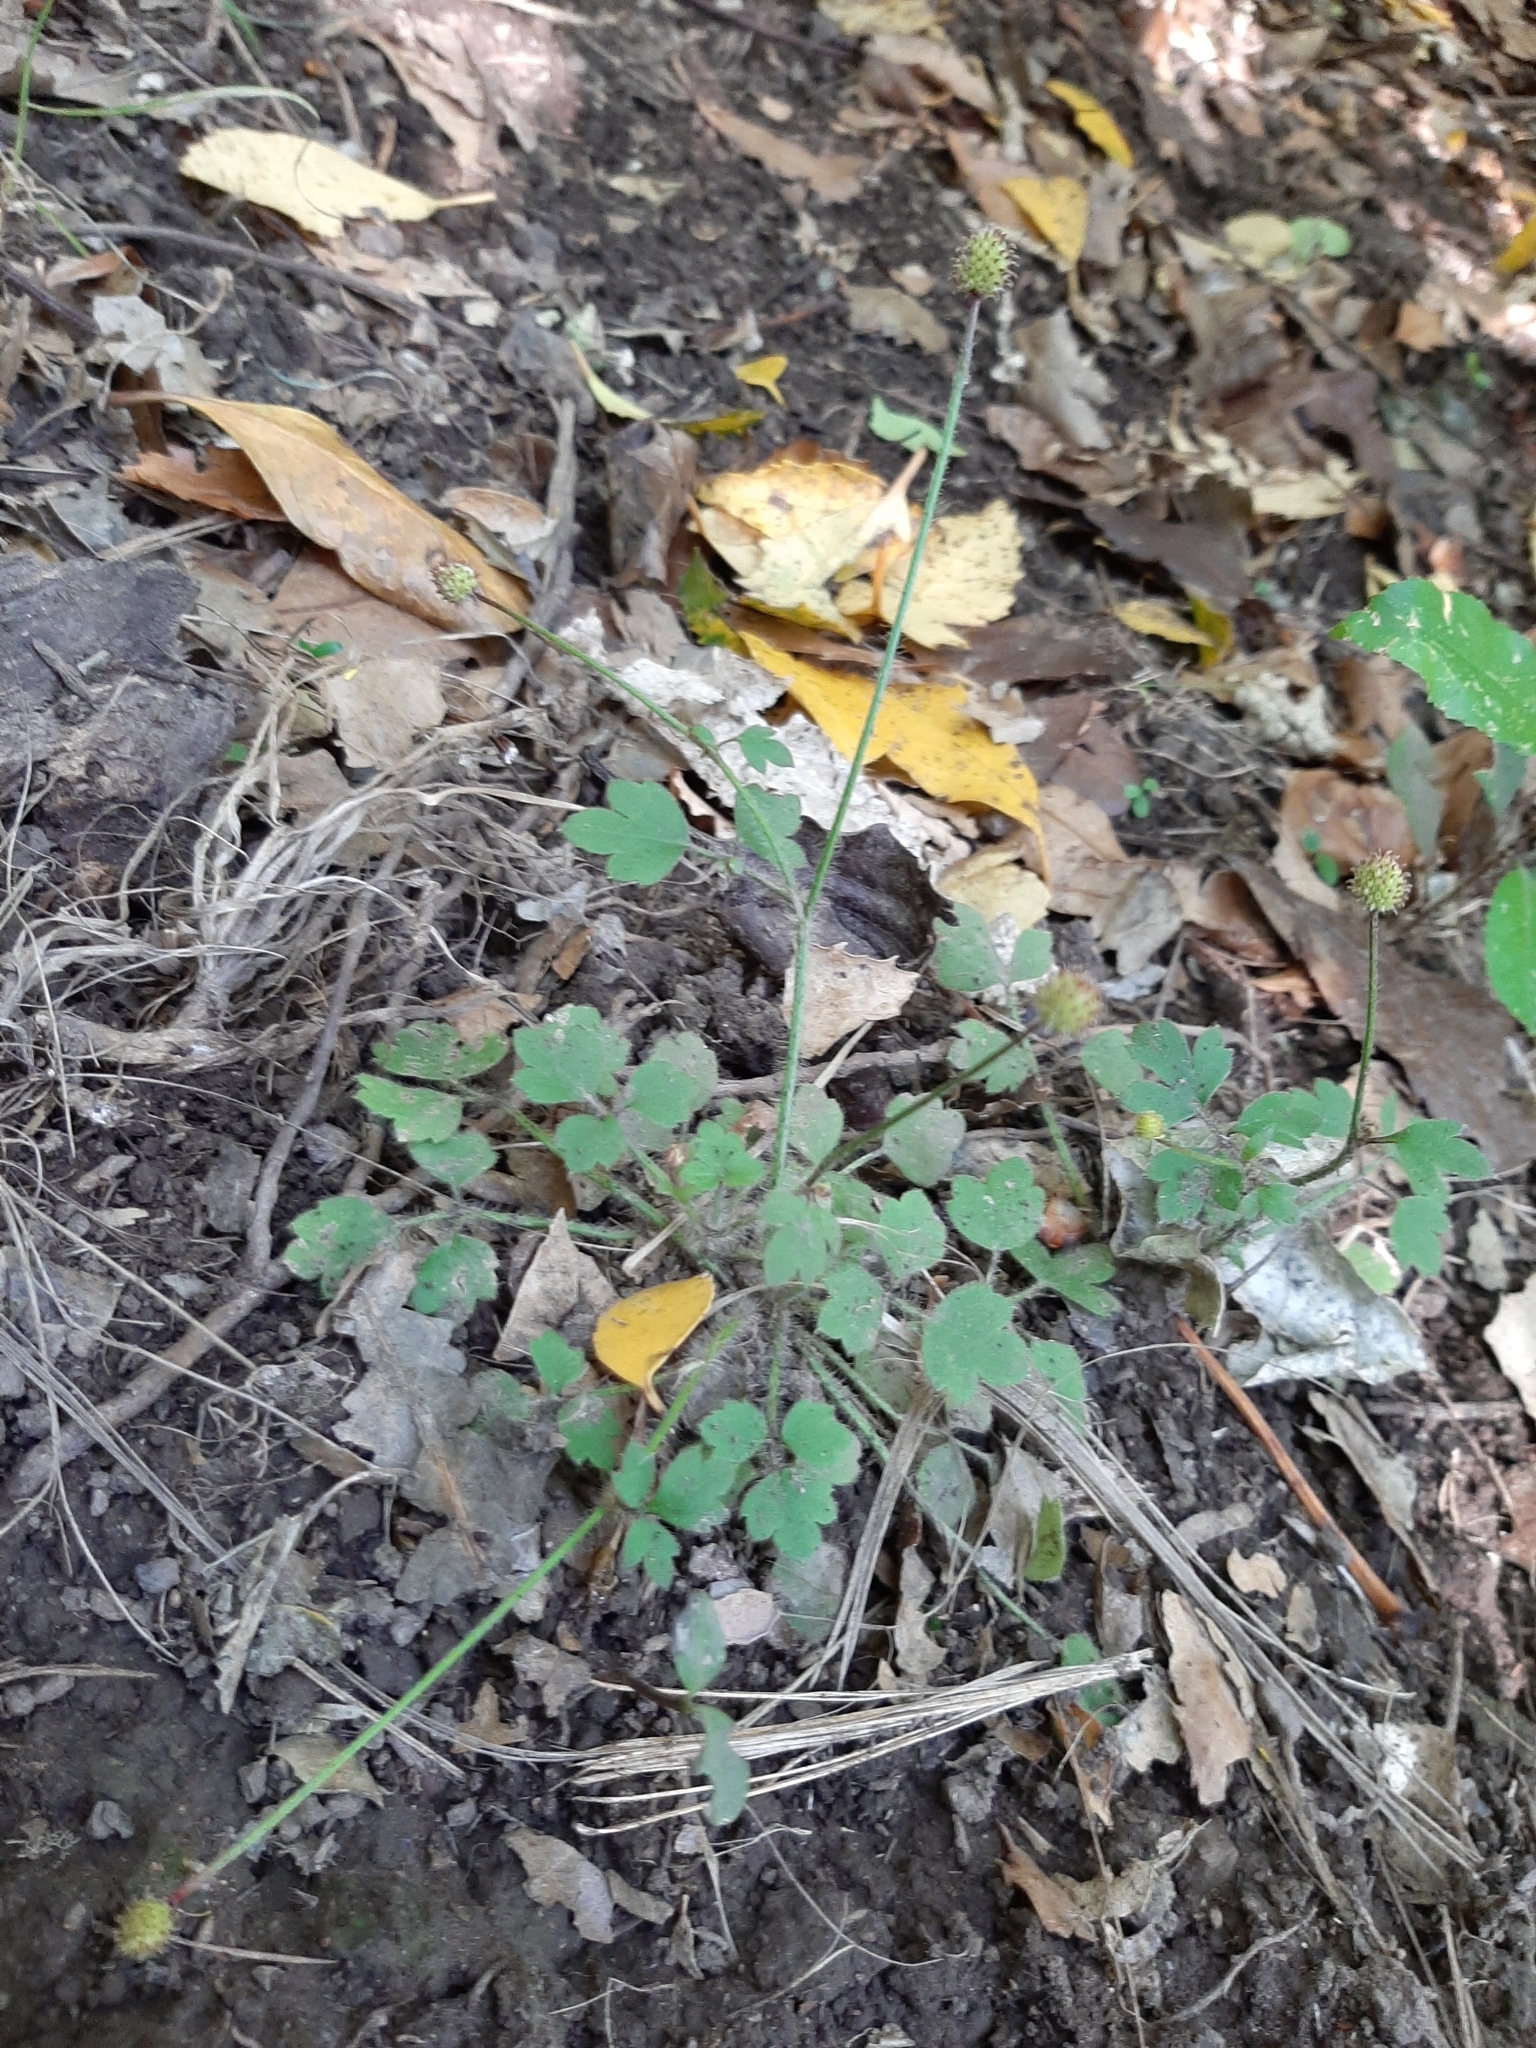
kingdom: Plantae
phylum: Tracheophyta
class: Magnoliopsida
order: Ranunculales
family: Ranunculaceae
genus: Ranunculus
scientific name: Ranunculus reflexus
